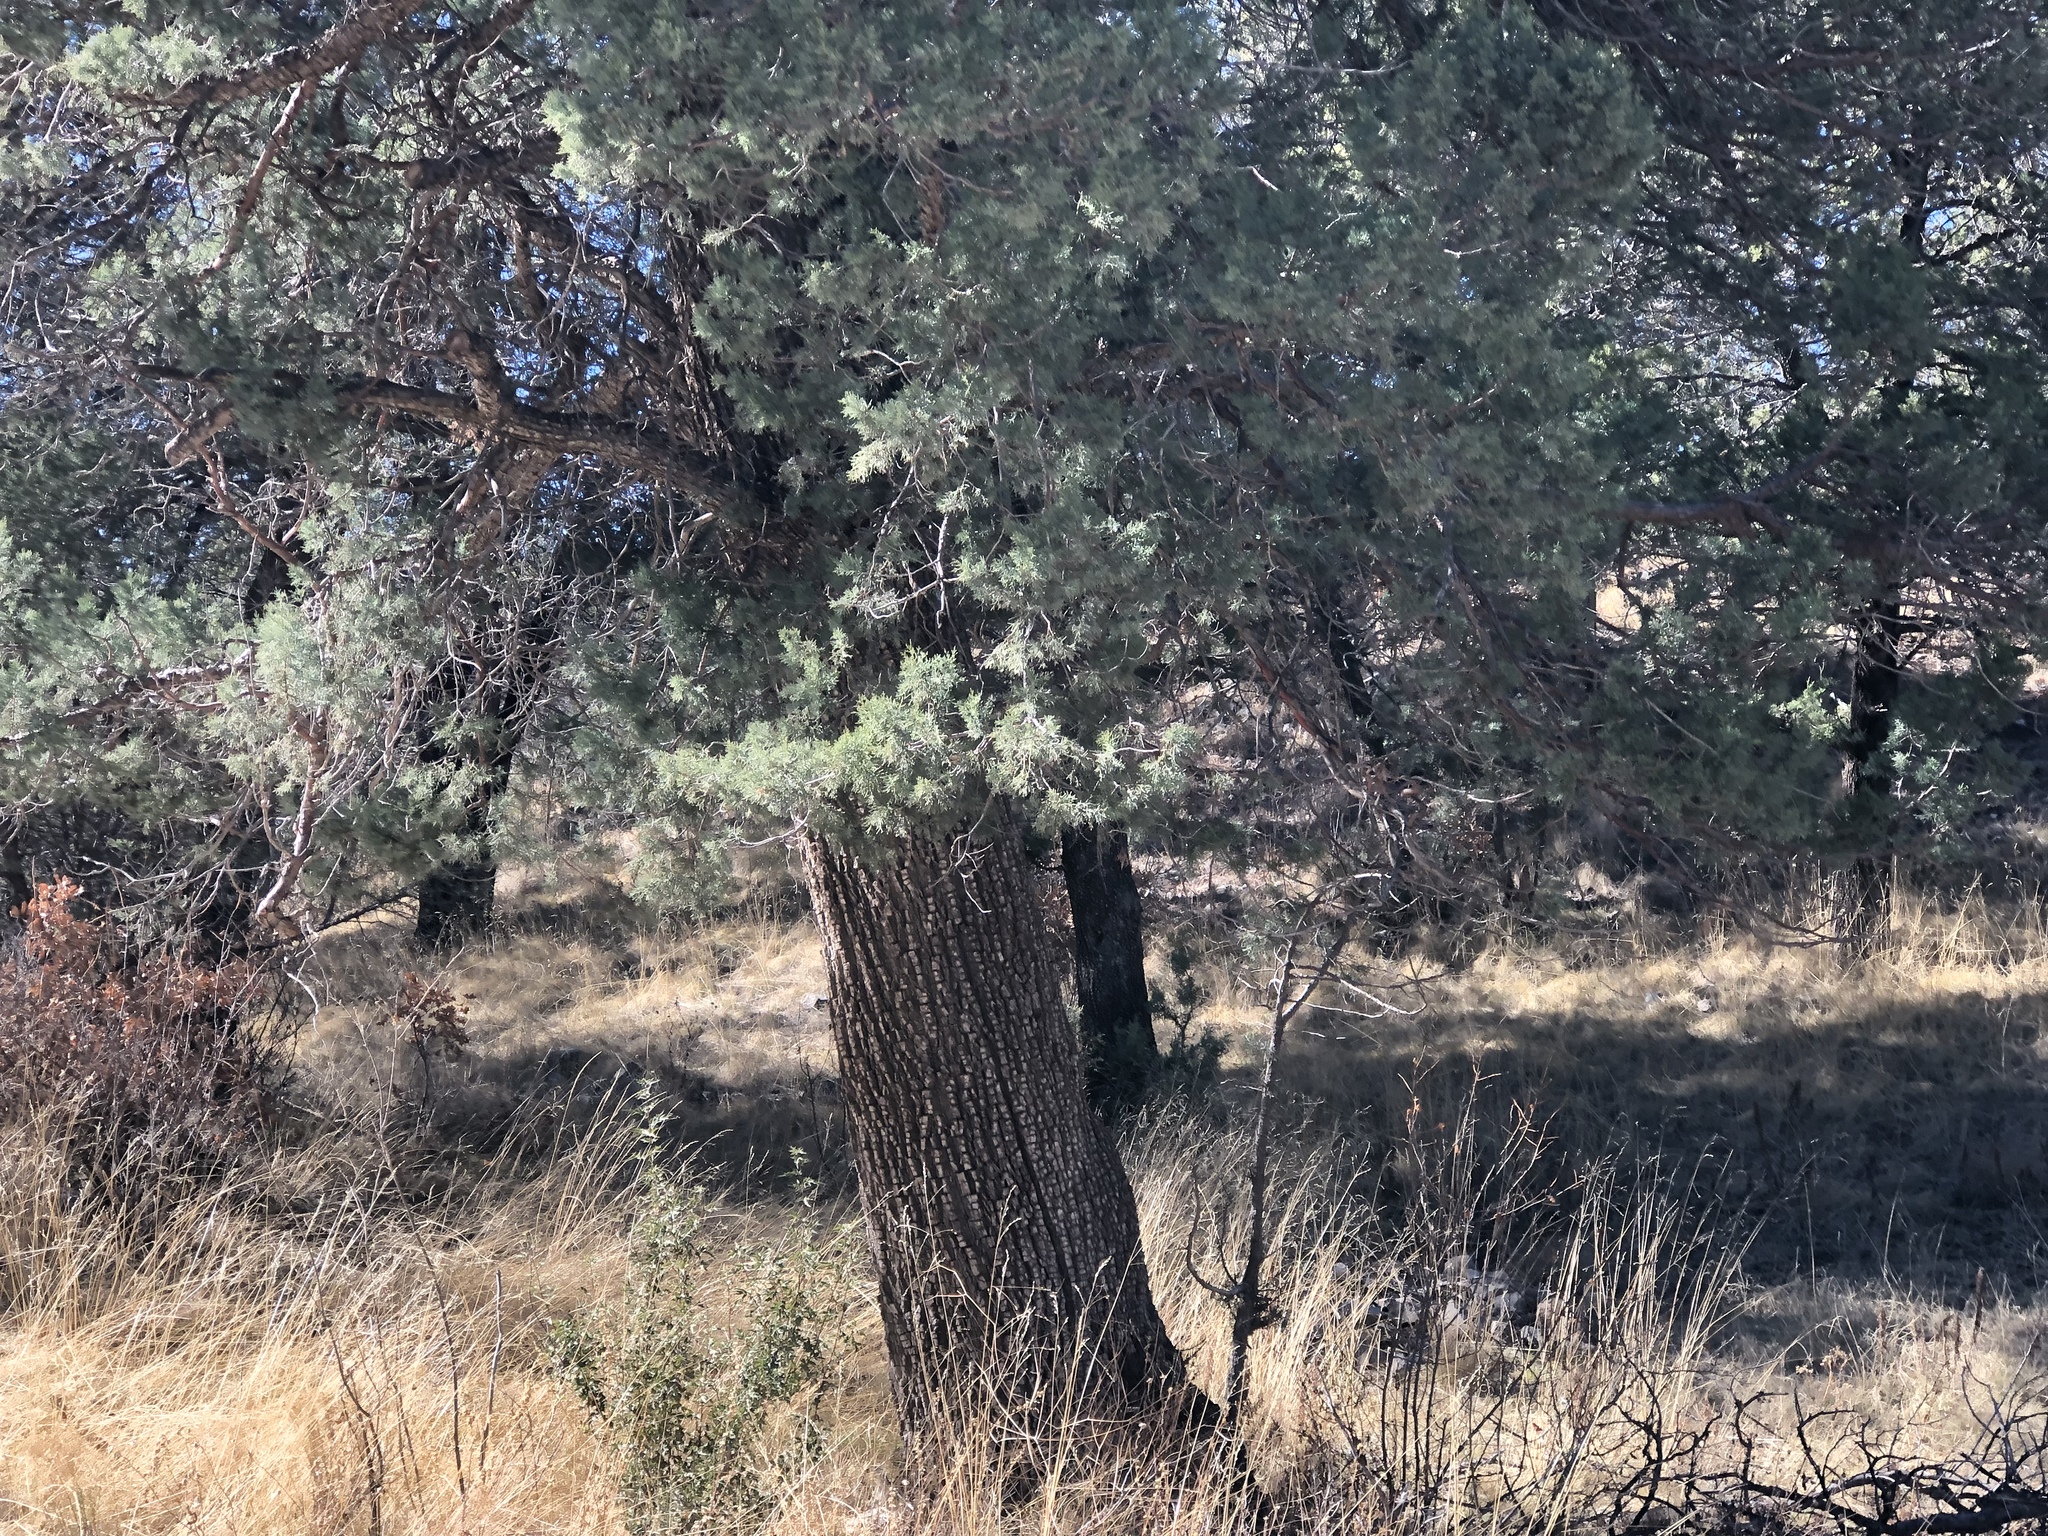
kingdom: Plantae
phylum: Tracheophyta
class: Pinopsida
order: Pinales
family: Cupressaceae
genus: Juniperus
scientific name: Juniperus deppeana
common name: Alligator juniper
